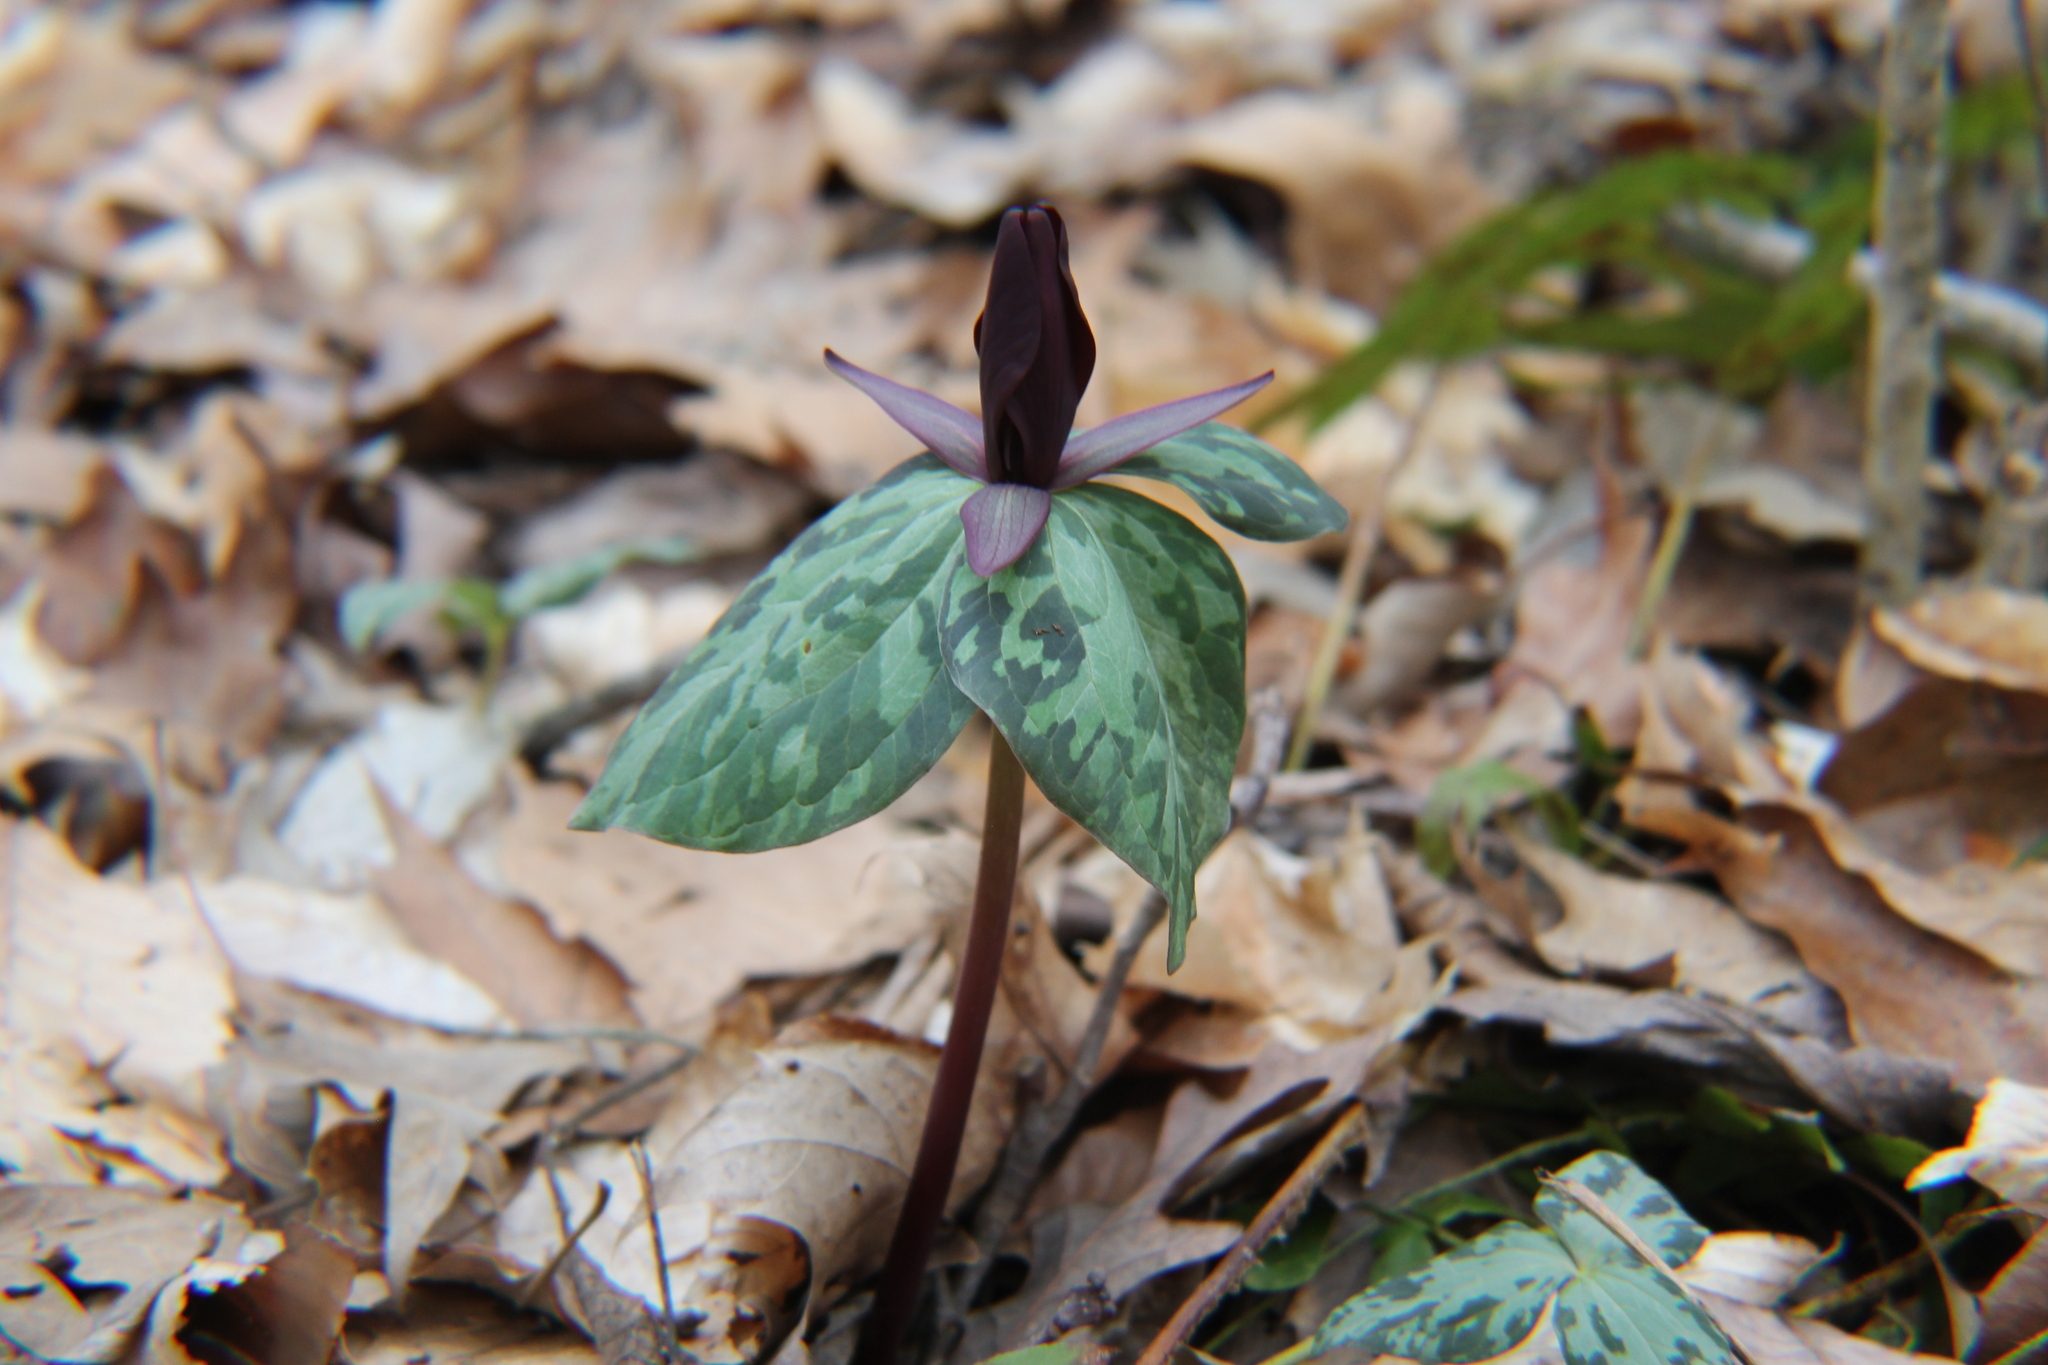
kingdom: Plantae
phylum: Tracheophyta
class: Liliopsida
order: Liliales
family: Melanthiaceae
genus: Trillium
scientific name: Trillium cuneatum
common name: Cuneate trillium
